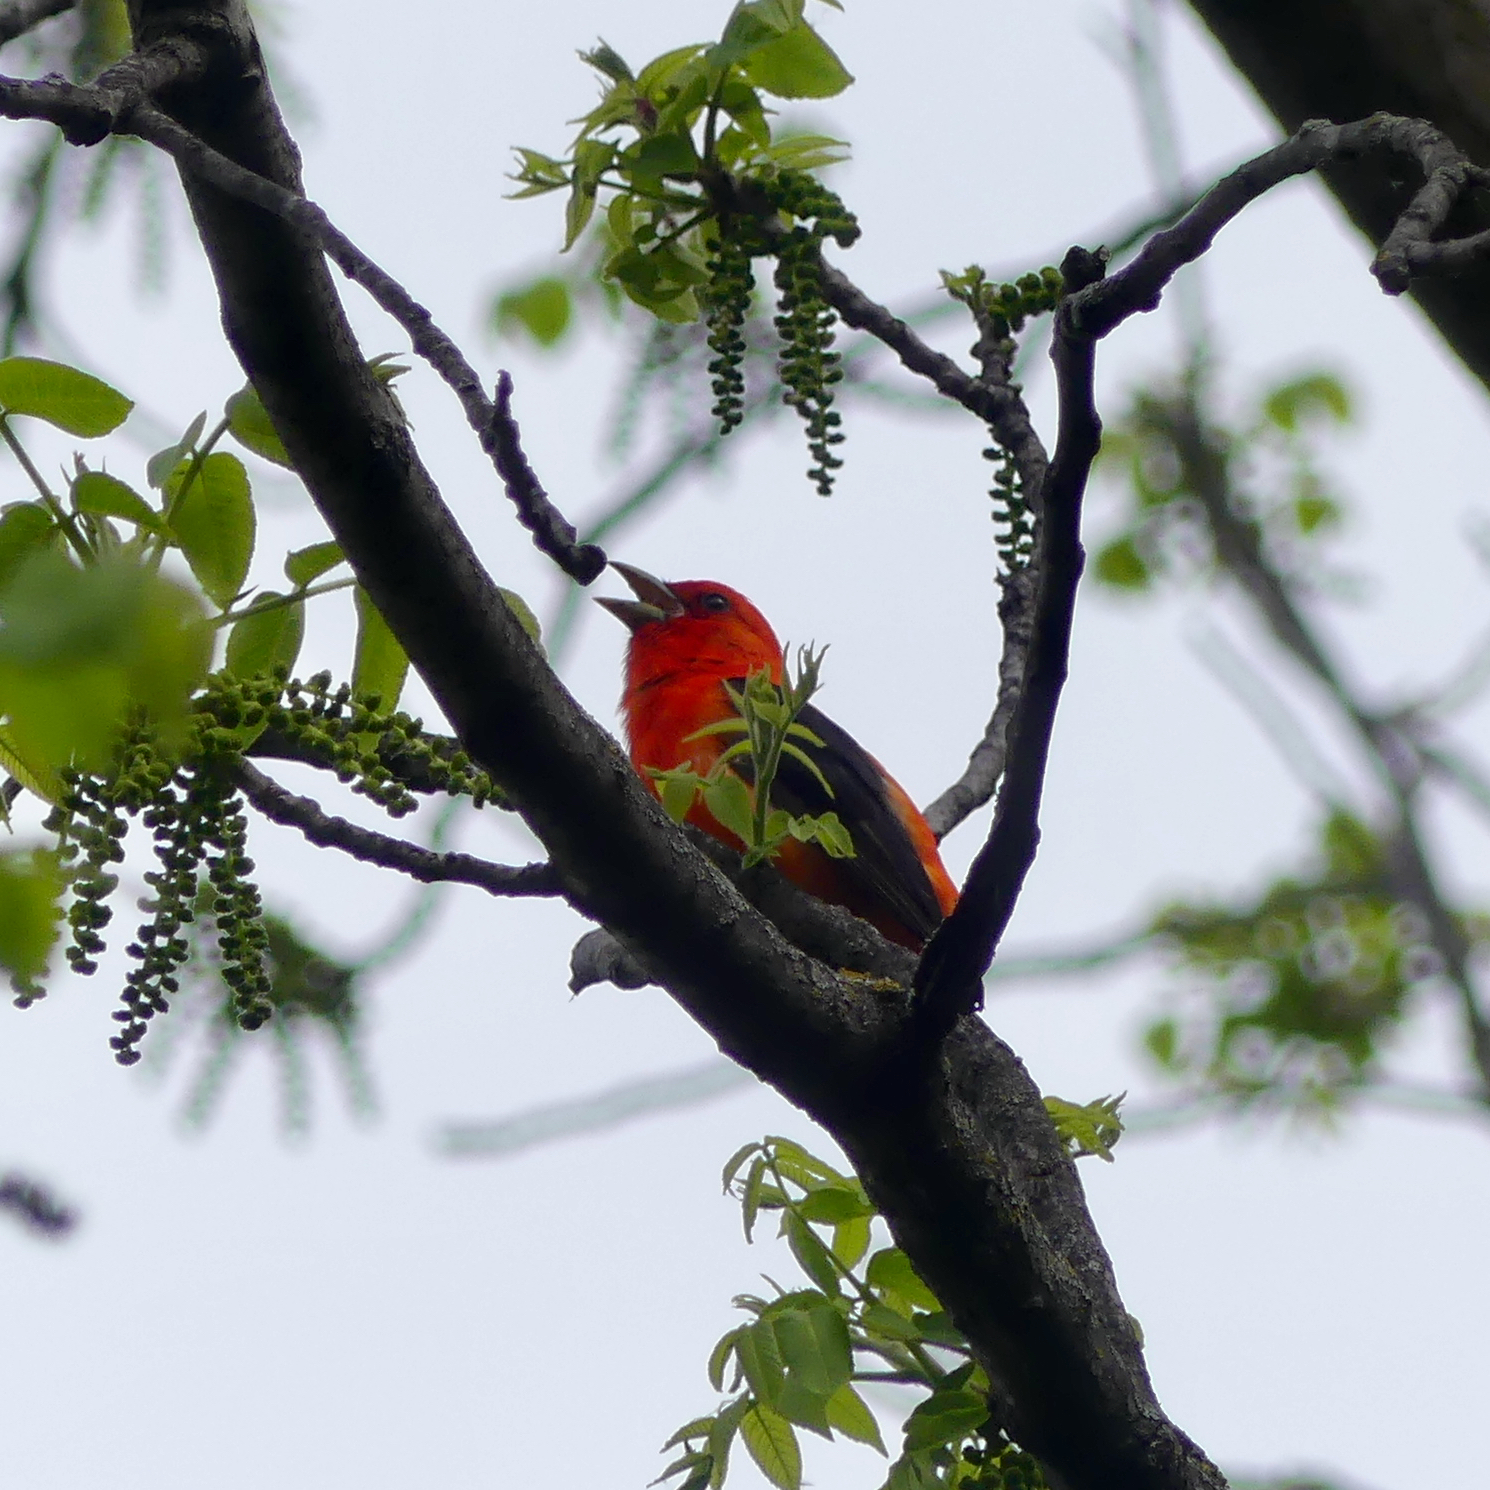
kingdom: Animalia
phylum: Chordata
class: Aves
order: Passeriformes
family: Cardinalidae
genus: Piranga
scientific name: Piranga olivacea
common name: Scarlet tanager
